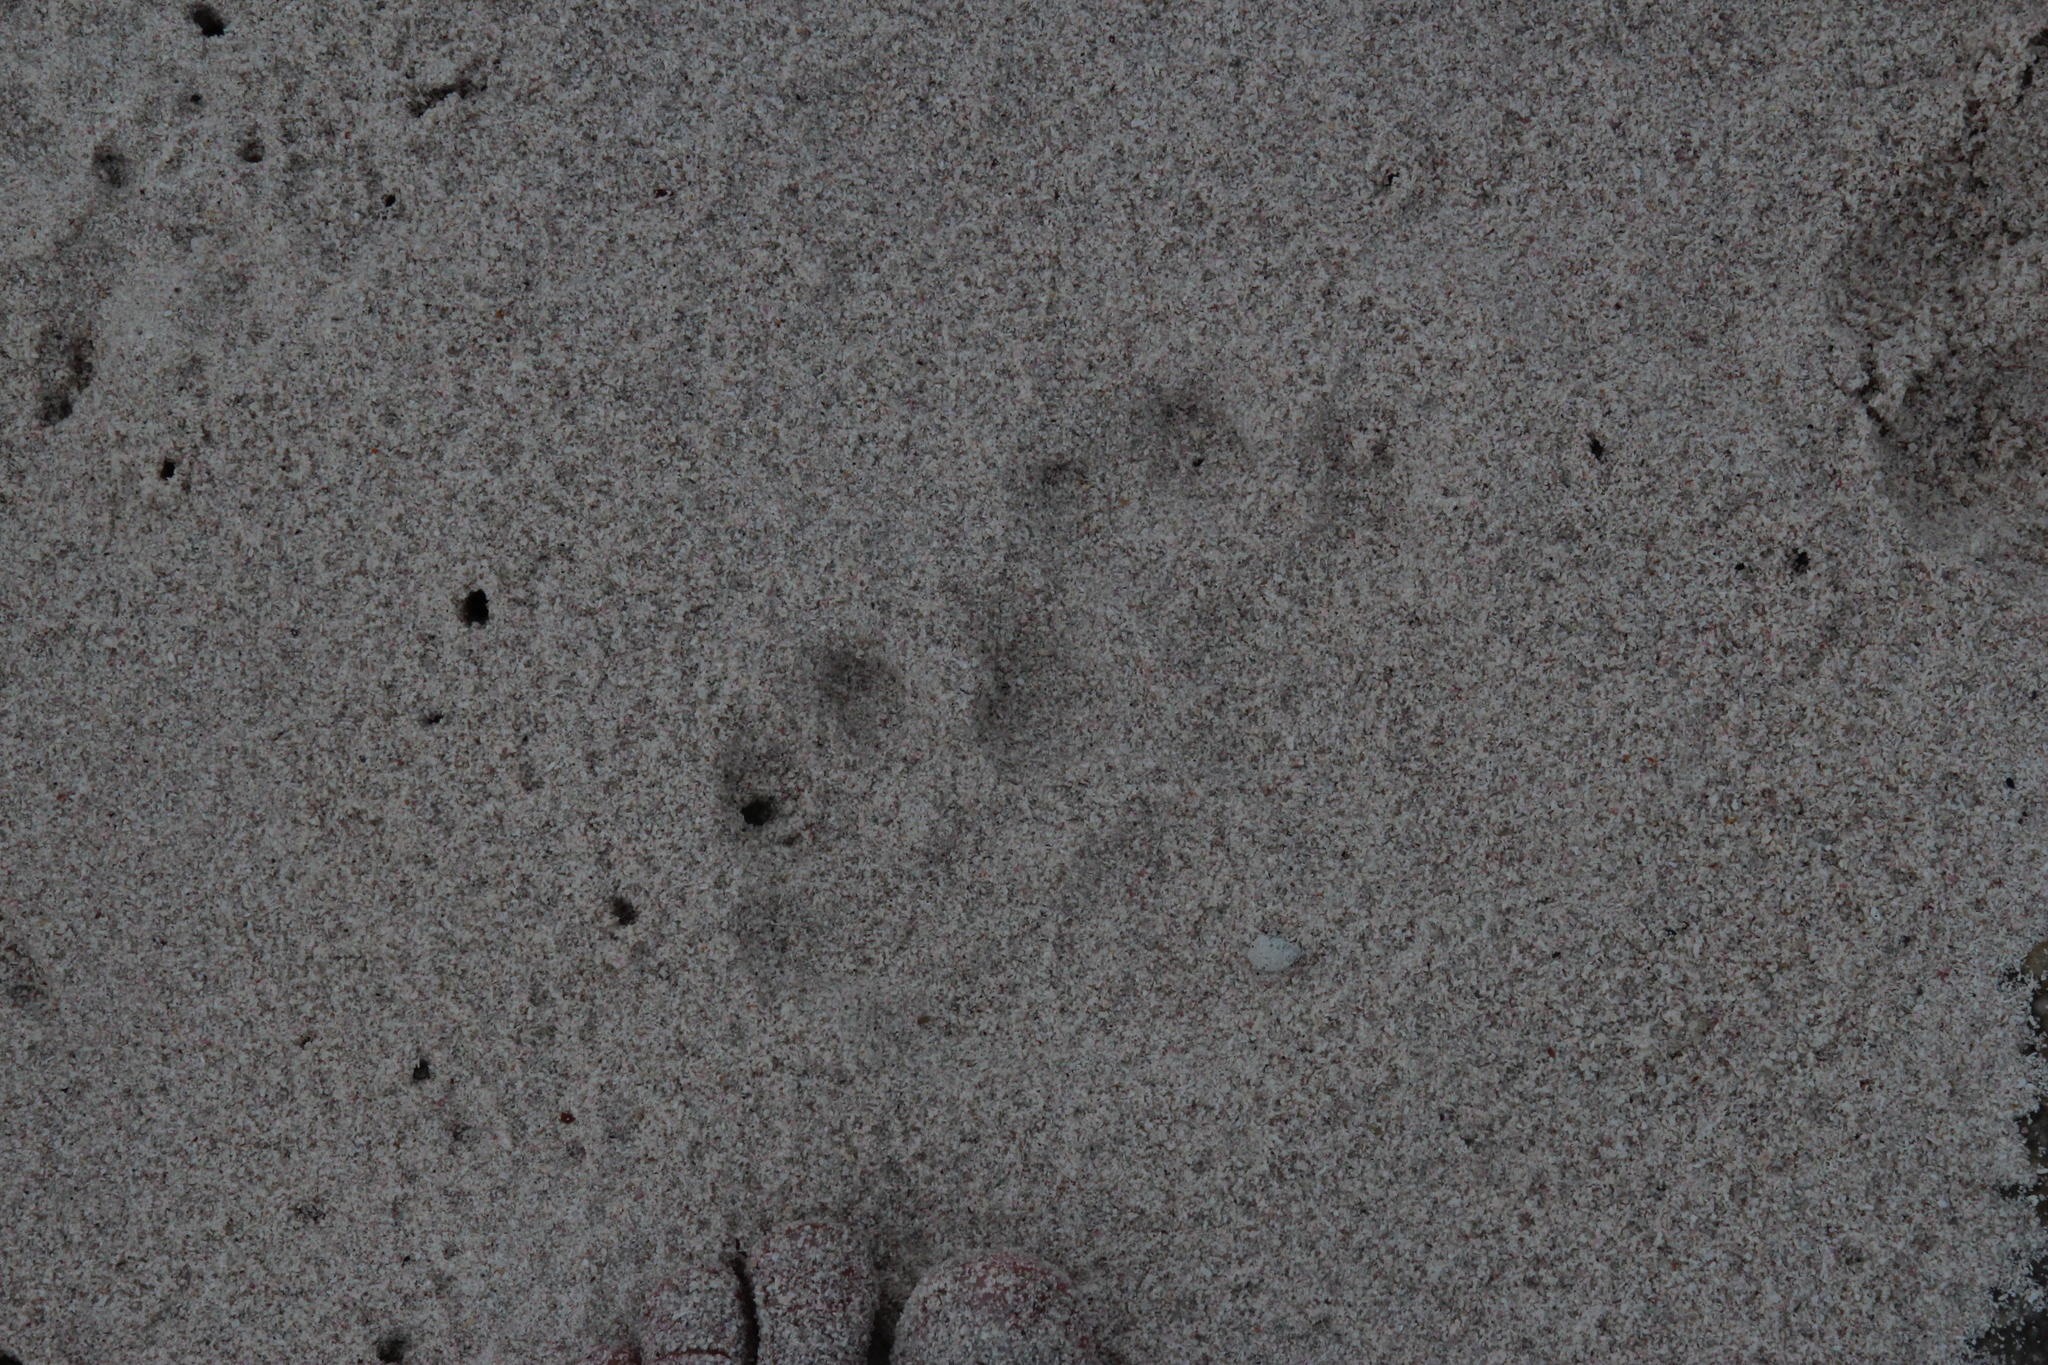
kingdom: Animalia
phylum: Chordata
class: Mammalia
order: Carnivora
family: Mustelidae
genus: Aonyx
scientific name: Aonyx capensis
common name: African clawless otter
